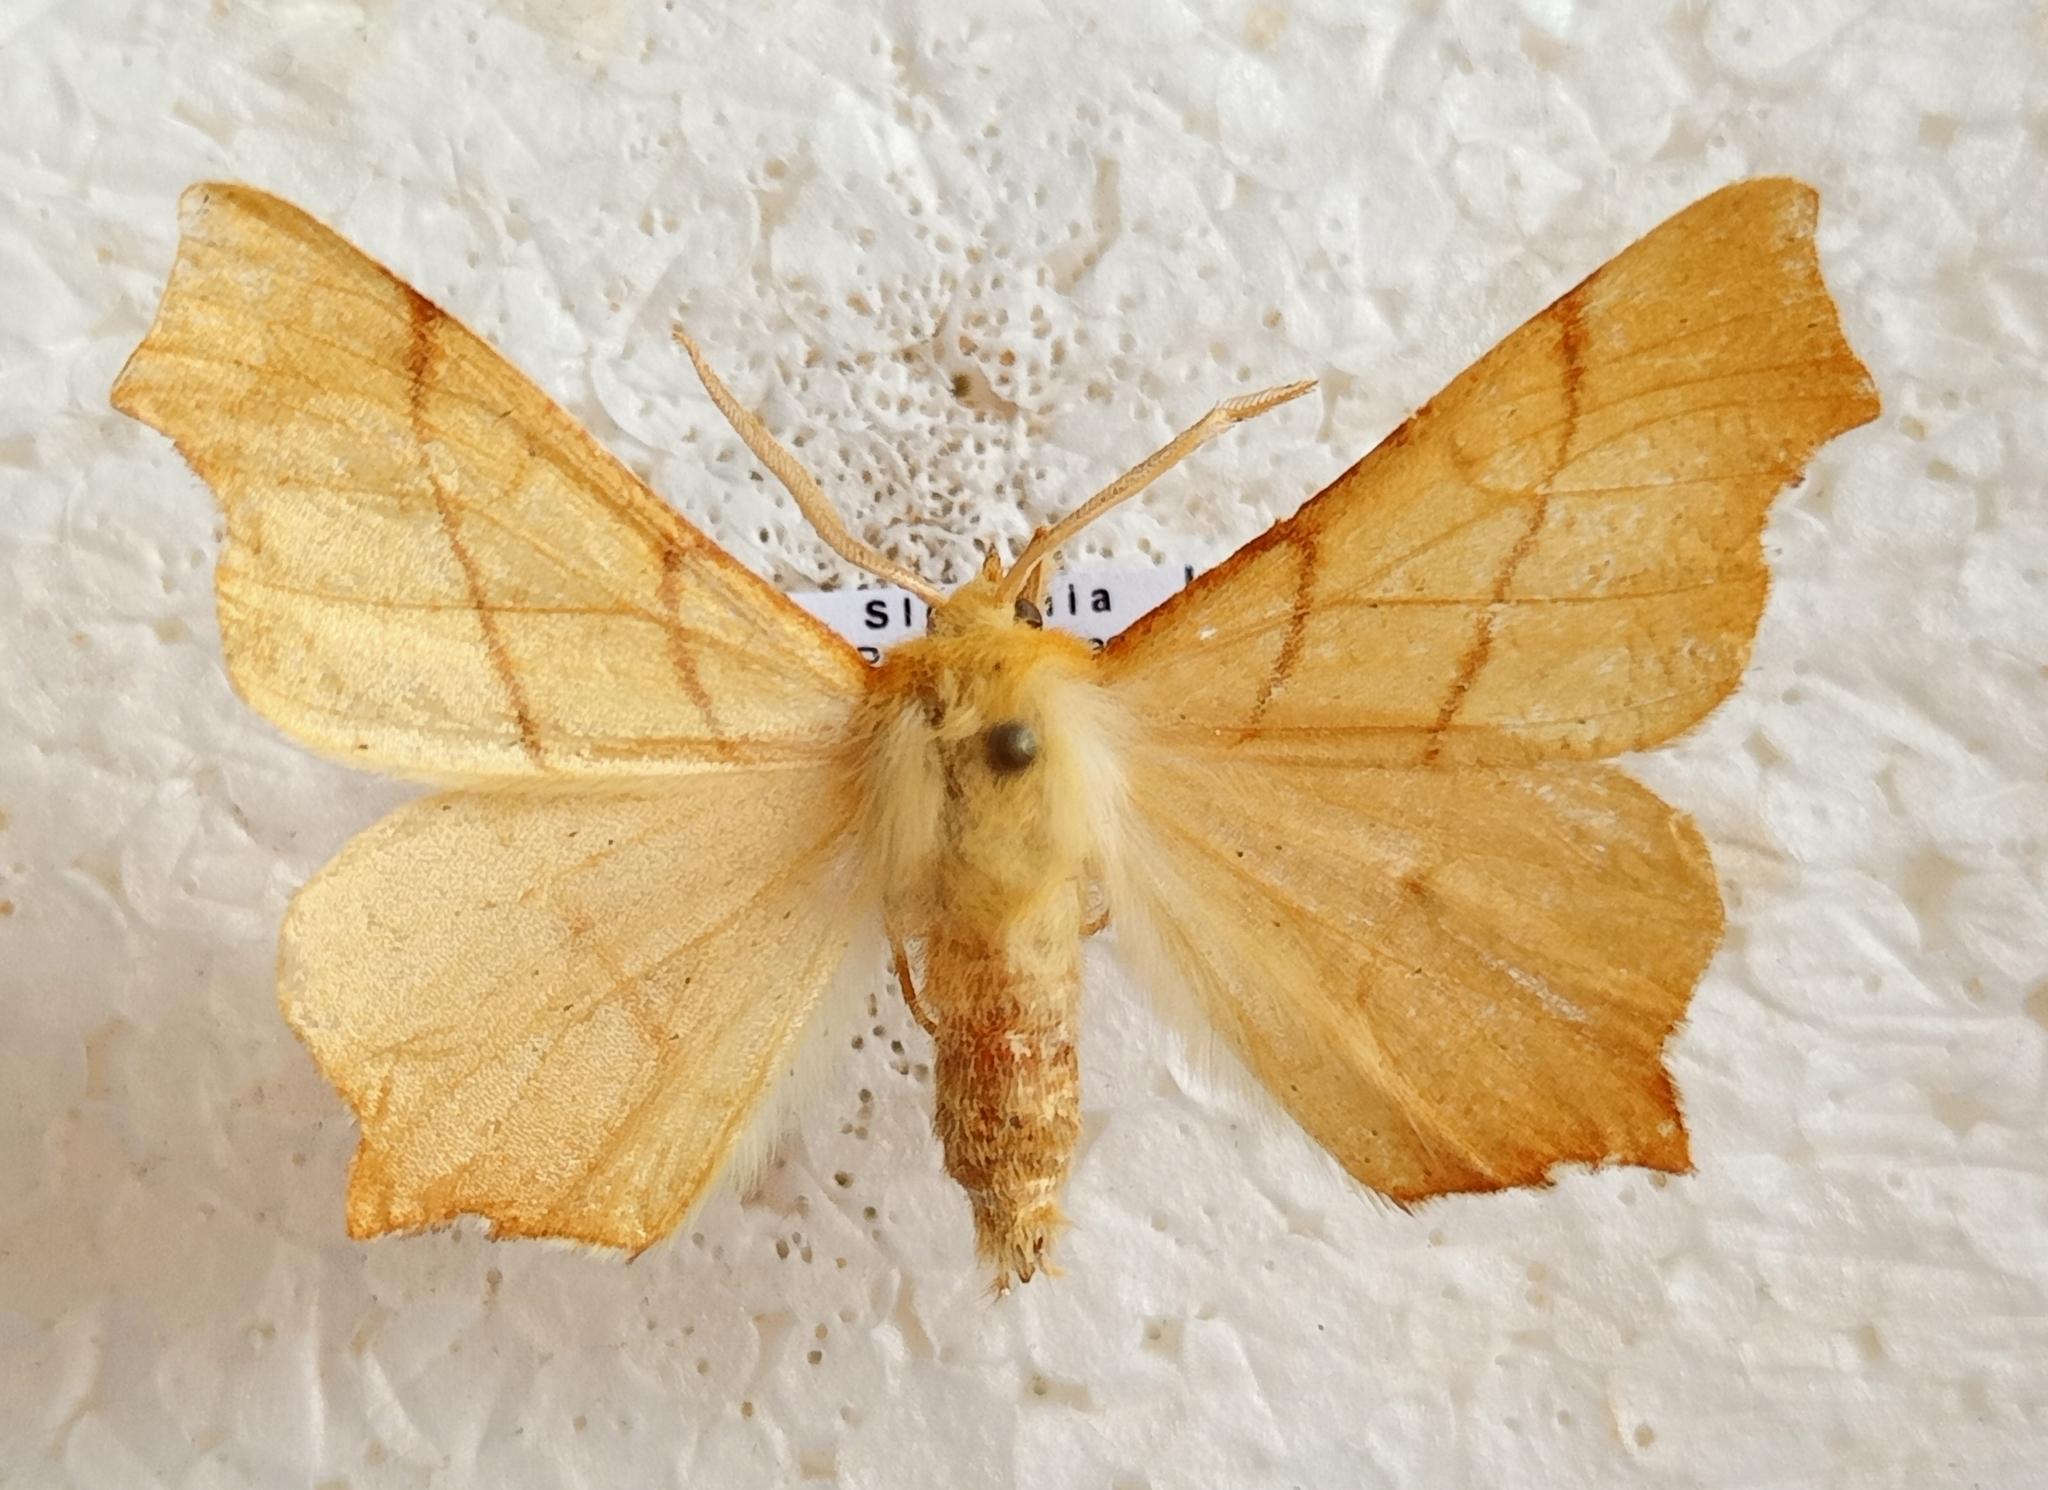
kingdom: Animalia
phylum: Arthropoda
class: Insecta
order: Lepidoptera
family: Geometridae
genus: Ennomos
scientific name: Ennomos erosaria
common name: September thorn
